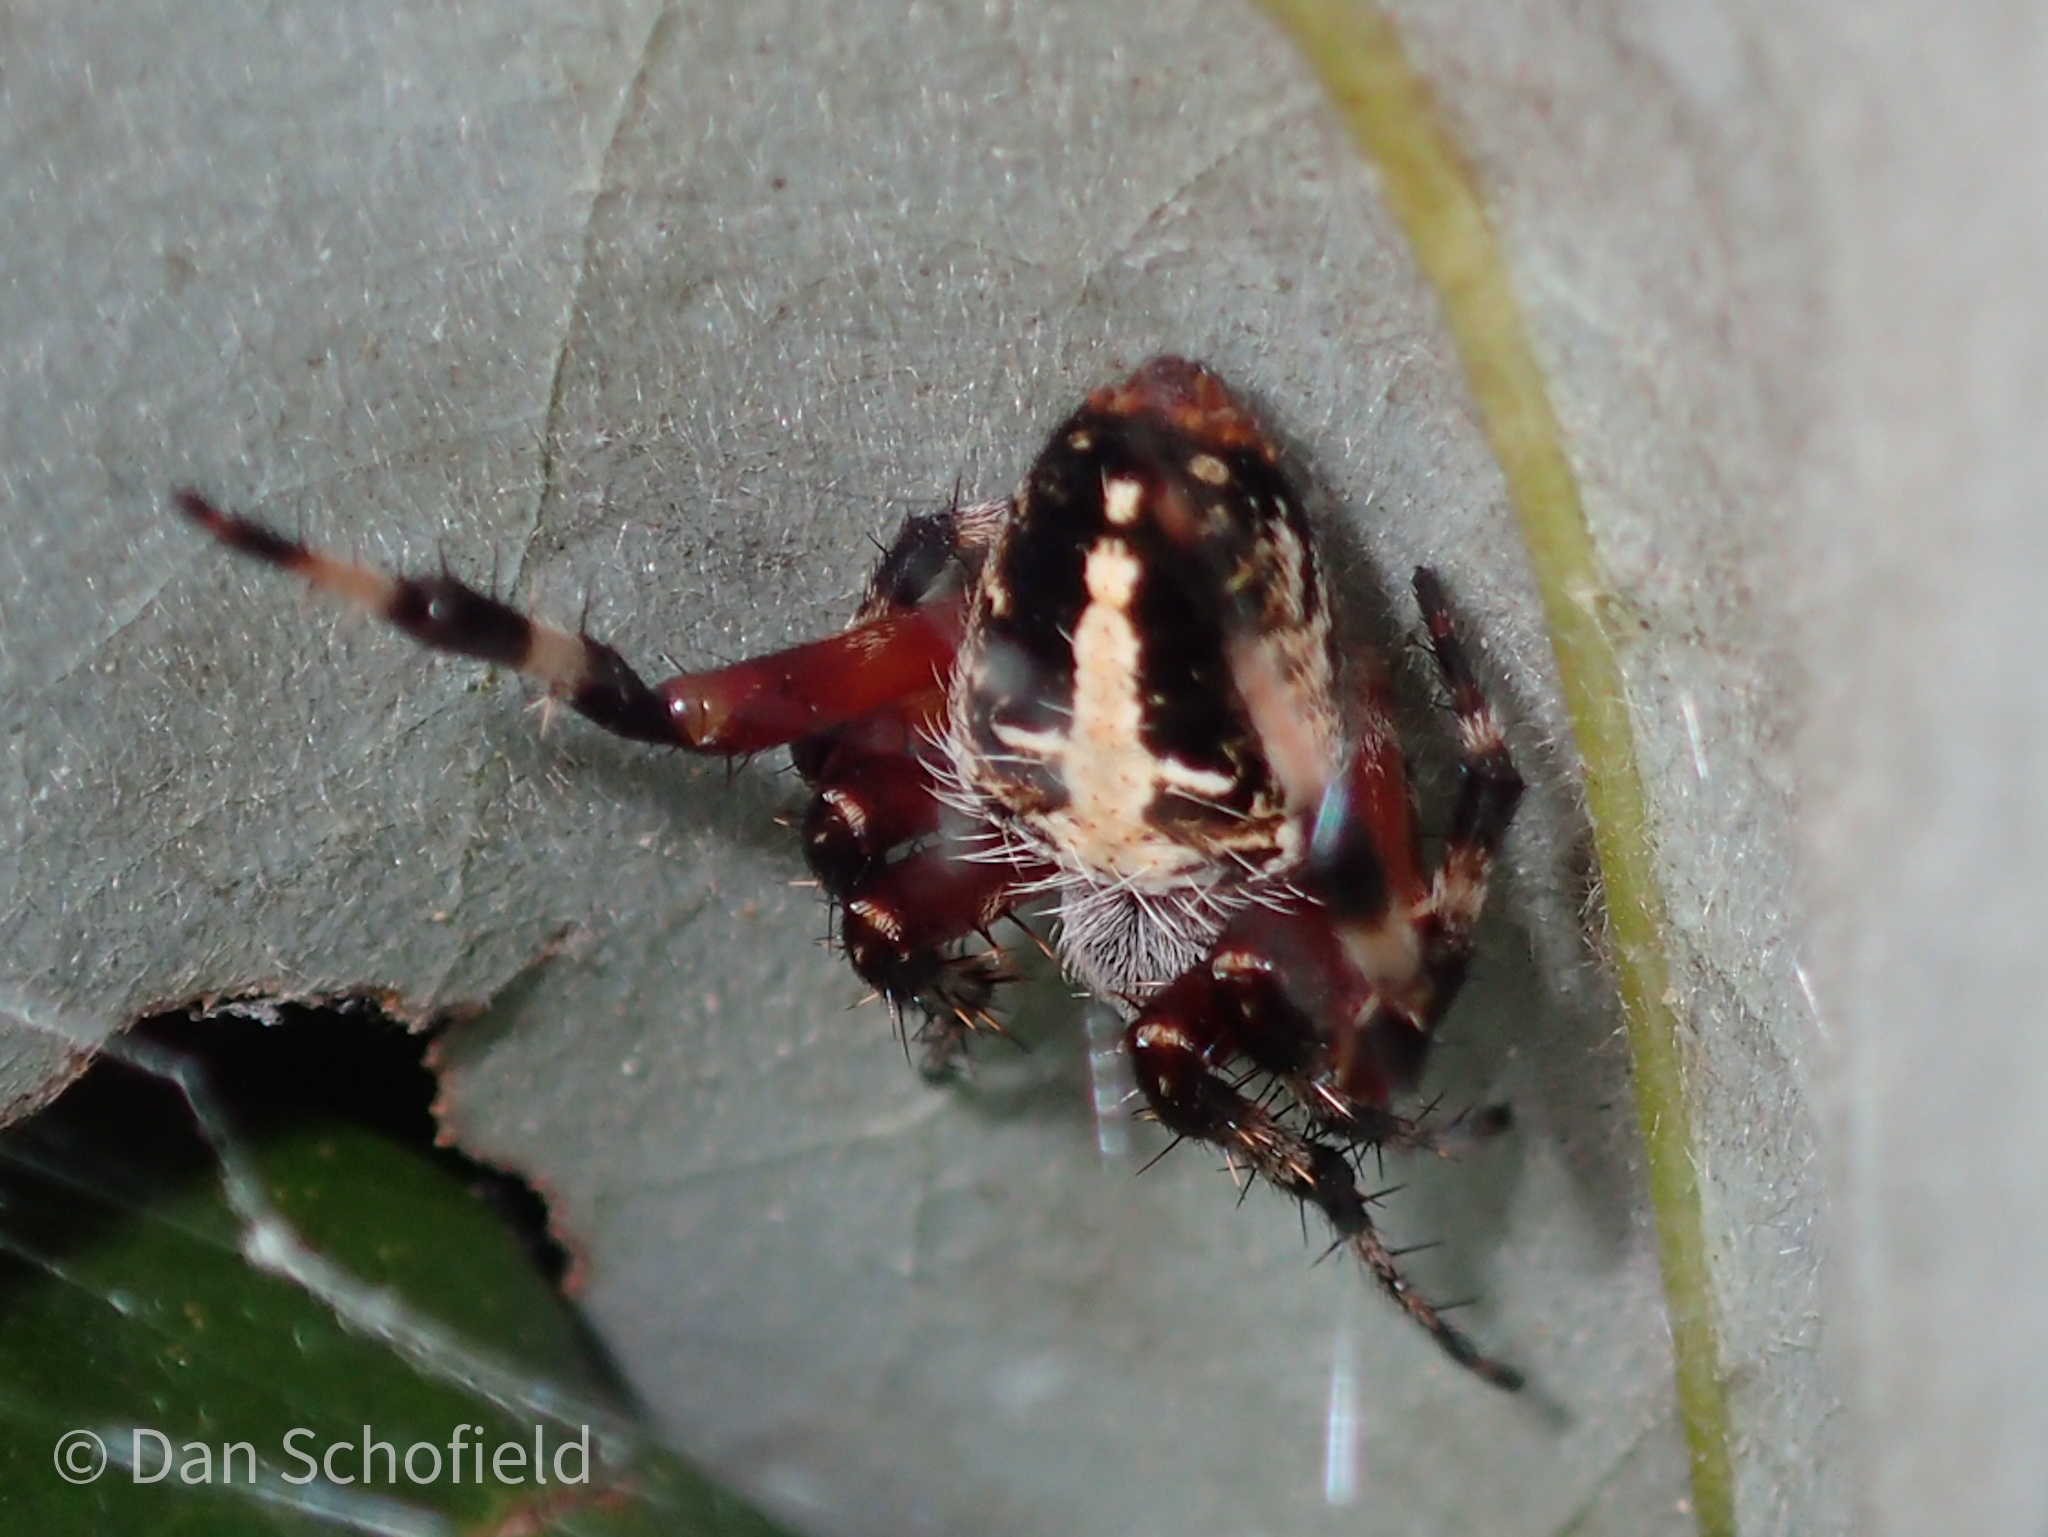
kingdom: Animalia
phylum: Arthropoda
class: Arachnida
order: Araneae
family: Araneidae
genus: Neoscona
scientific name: Neoscona domiciliorum
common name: Red-femured spotted orbweaver
